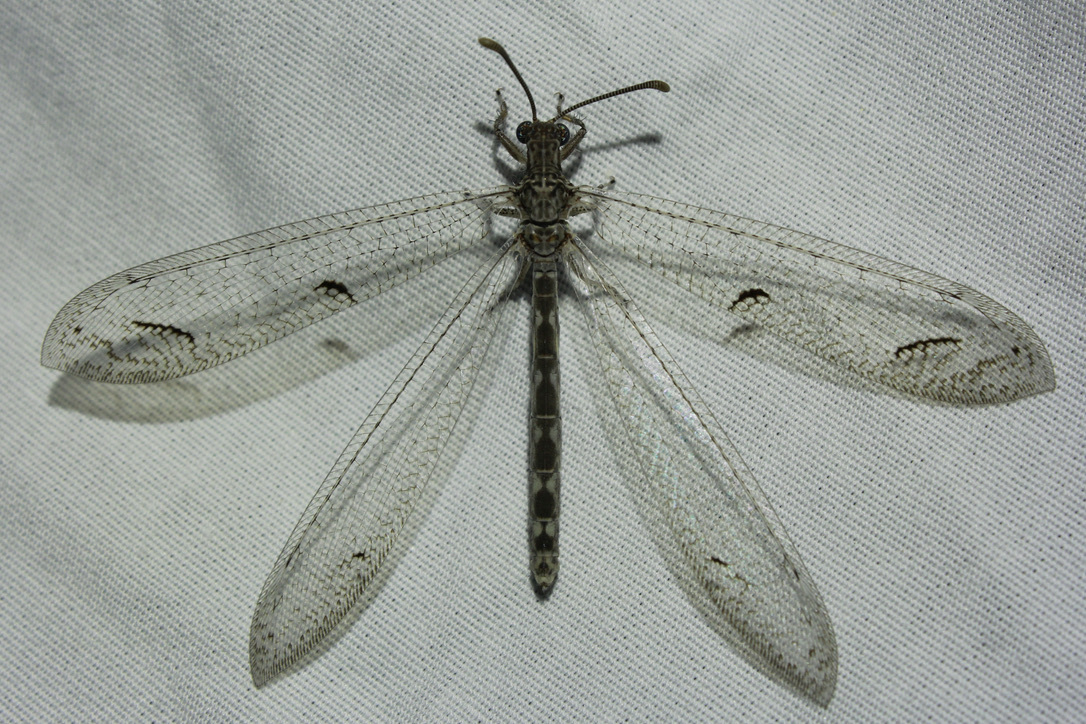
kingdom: Animalia
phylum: Arthropoda
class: Insecta
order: Neuroptera
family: Myrmeleontidae
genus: Euptilon
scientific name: Euptilon ornatum
